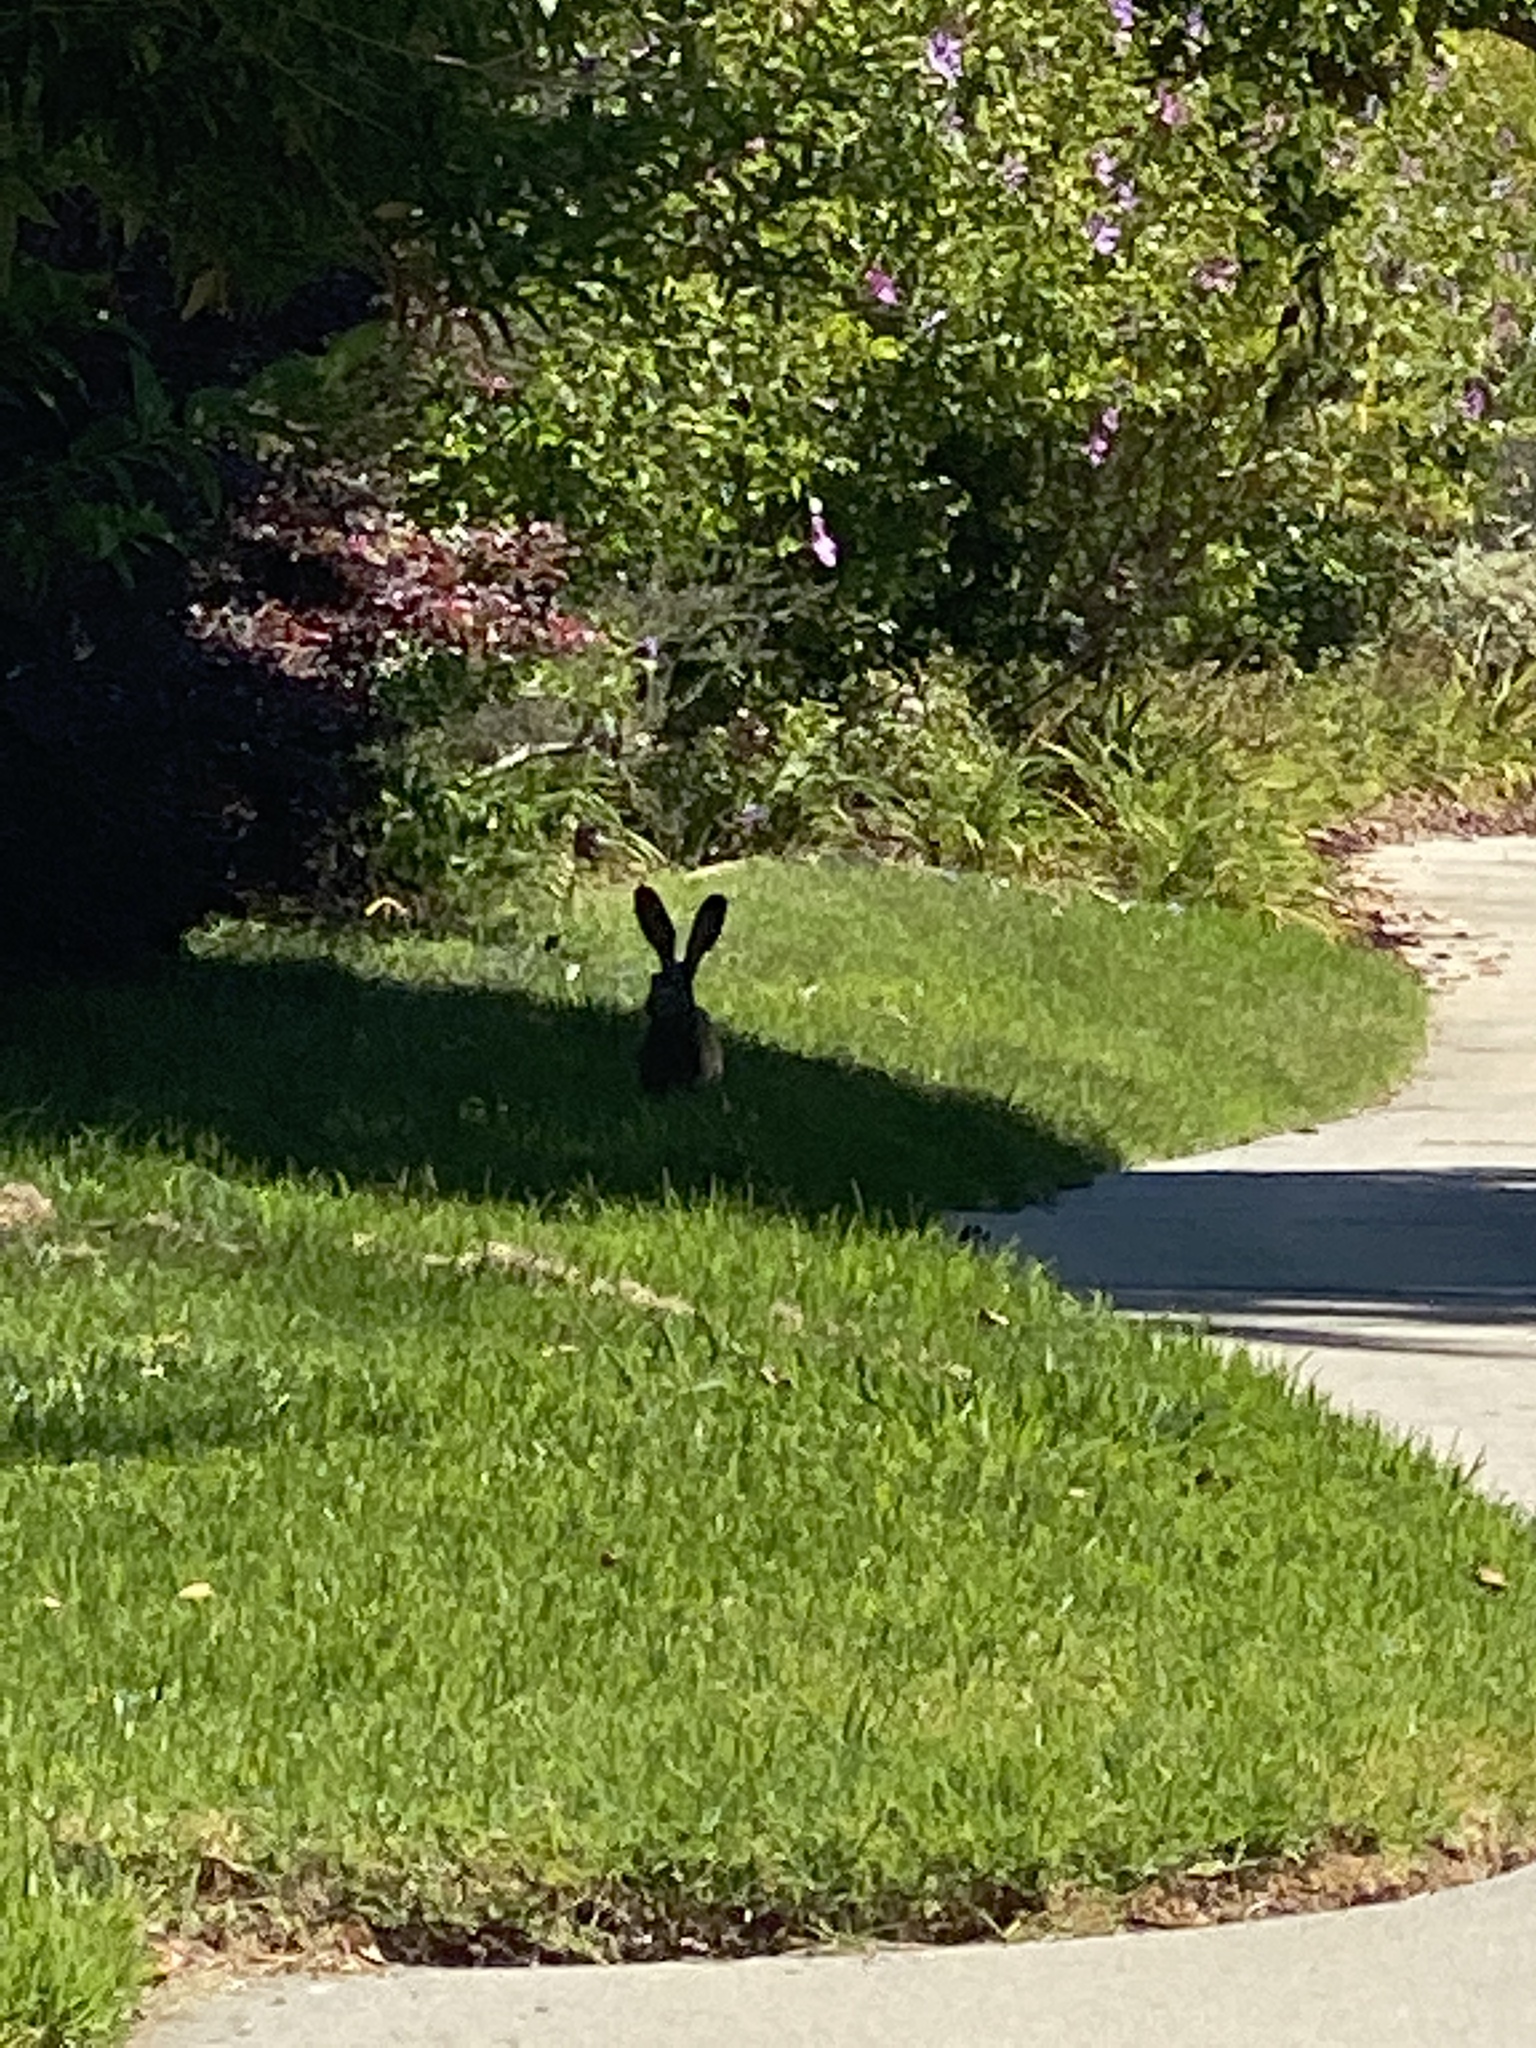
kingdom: Animalia
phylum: Chordata
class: Mammalia
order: Lagomorpha
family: Leporidae
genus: Lepus
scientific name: Lepus californicus
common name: Black-tailed jackrabbit
